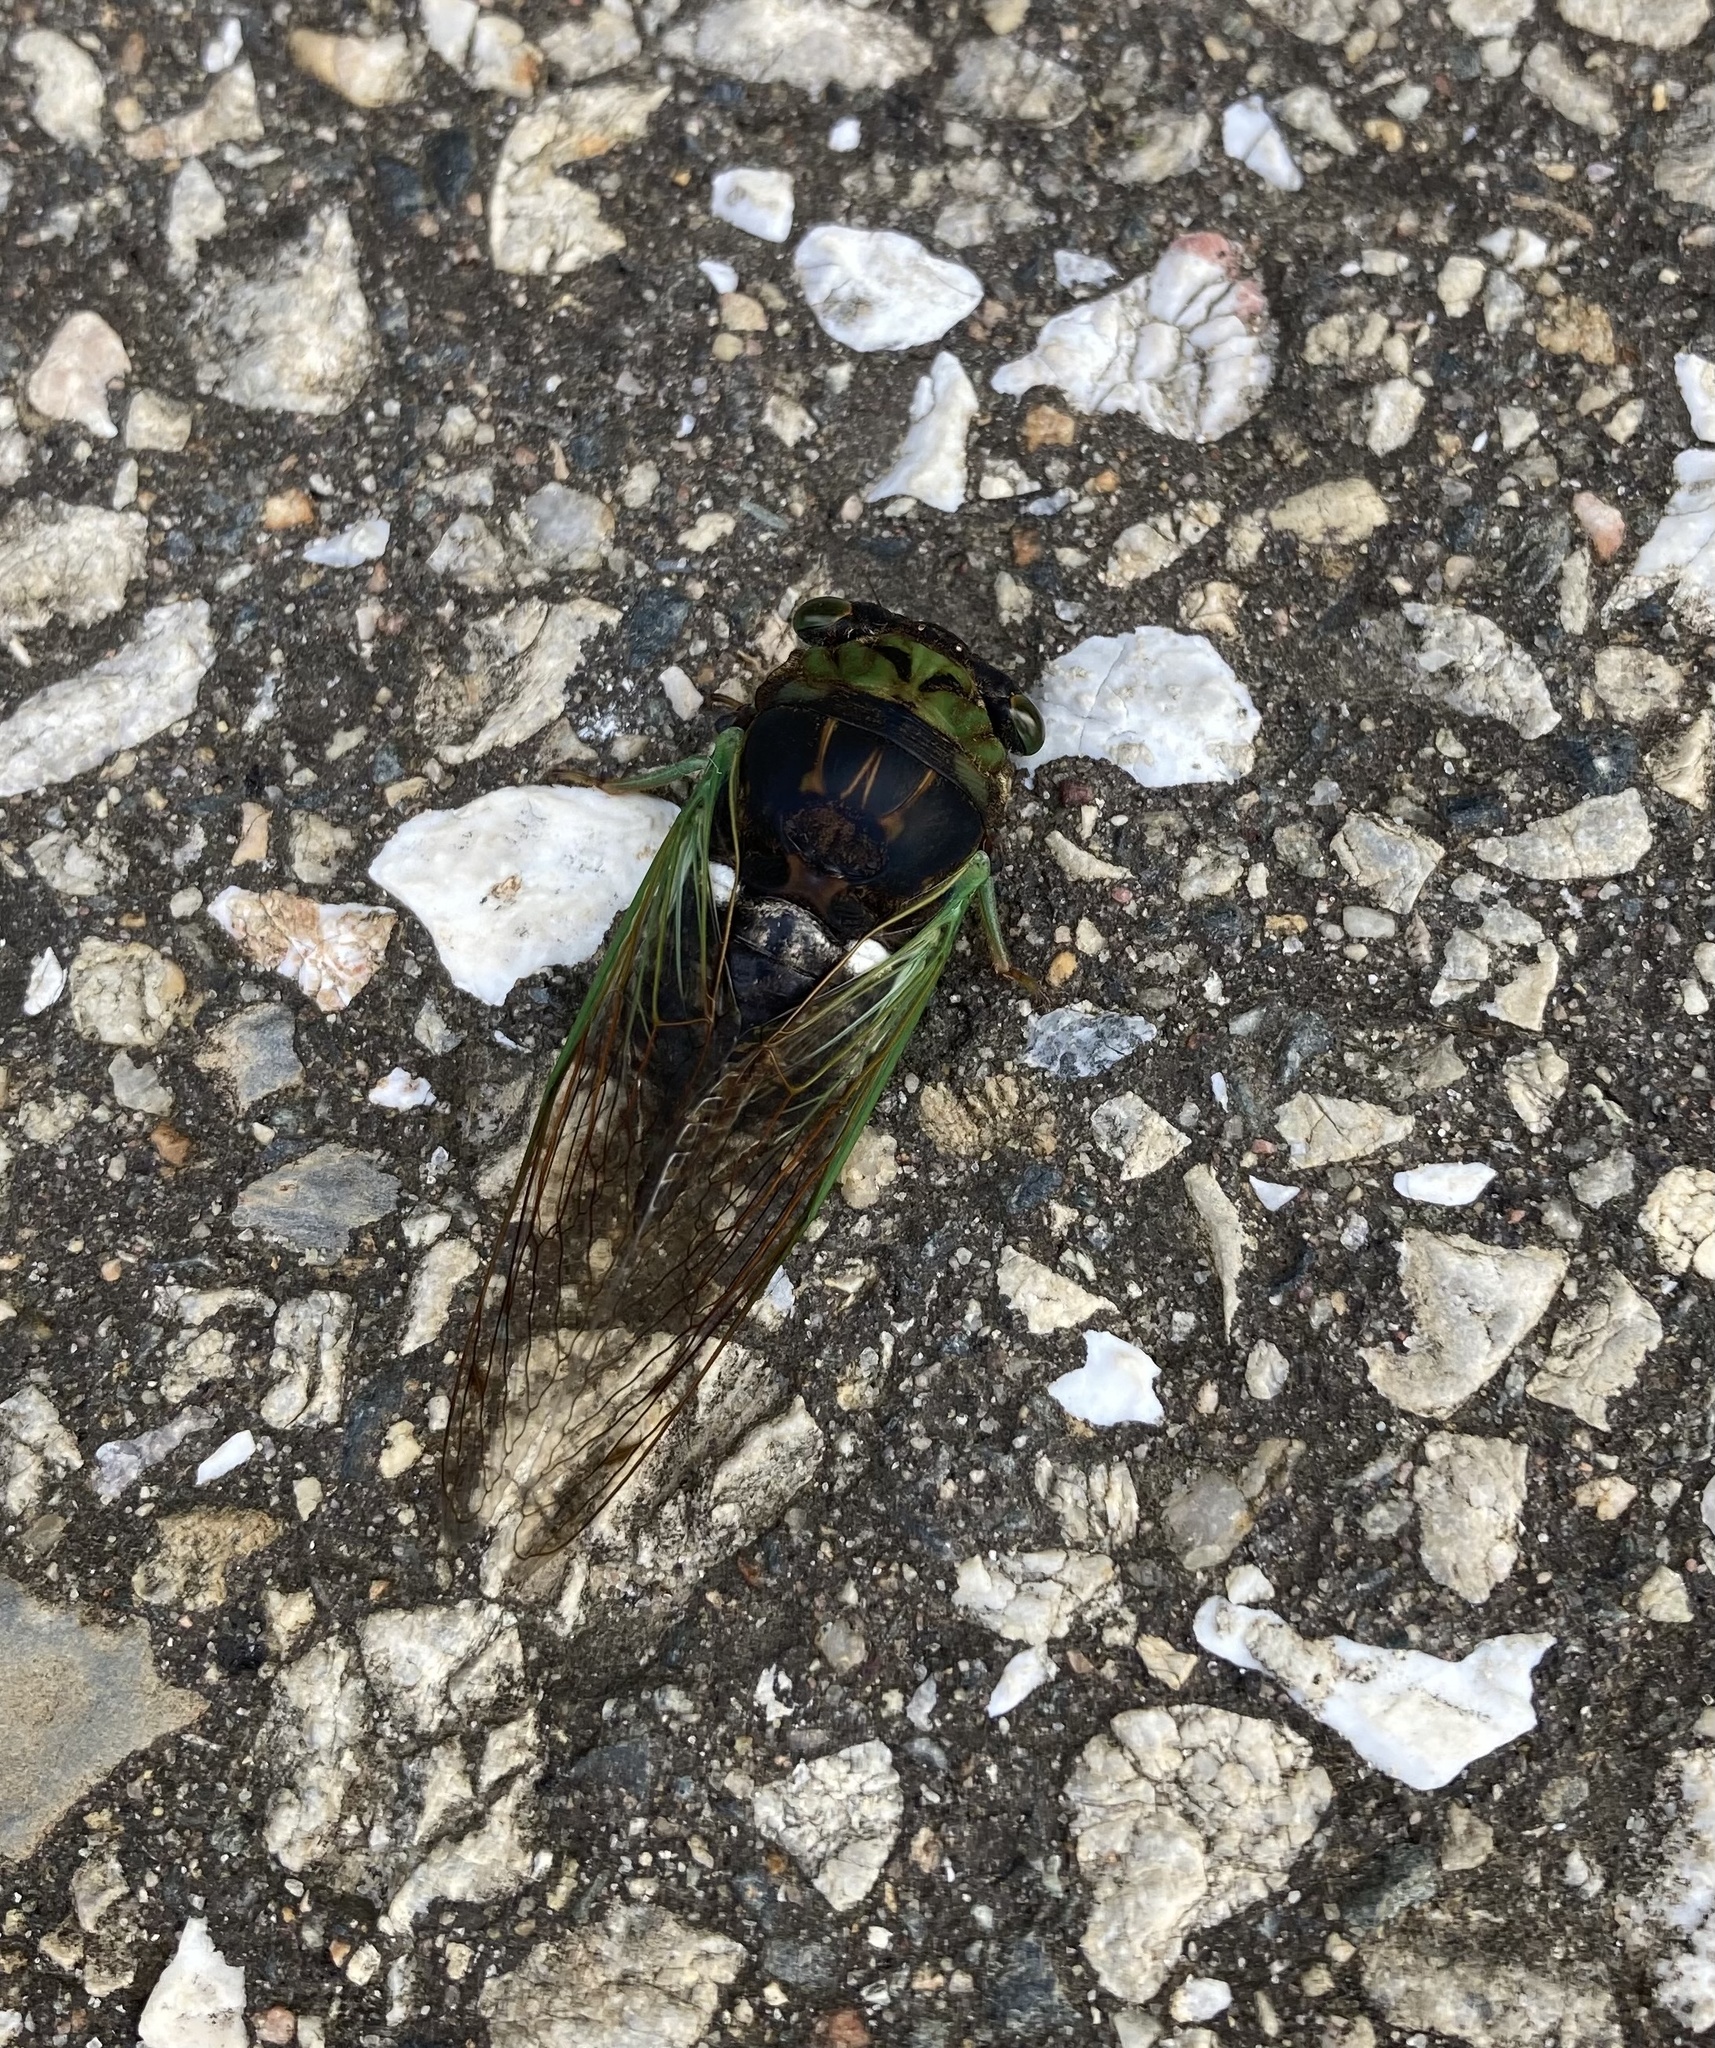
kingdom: Animalia
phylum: Arthropoda
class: Insecta
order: Hemiptera
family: Cicadidae
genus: Neotibicen
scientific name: Neotibicen tibicen
